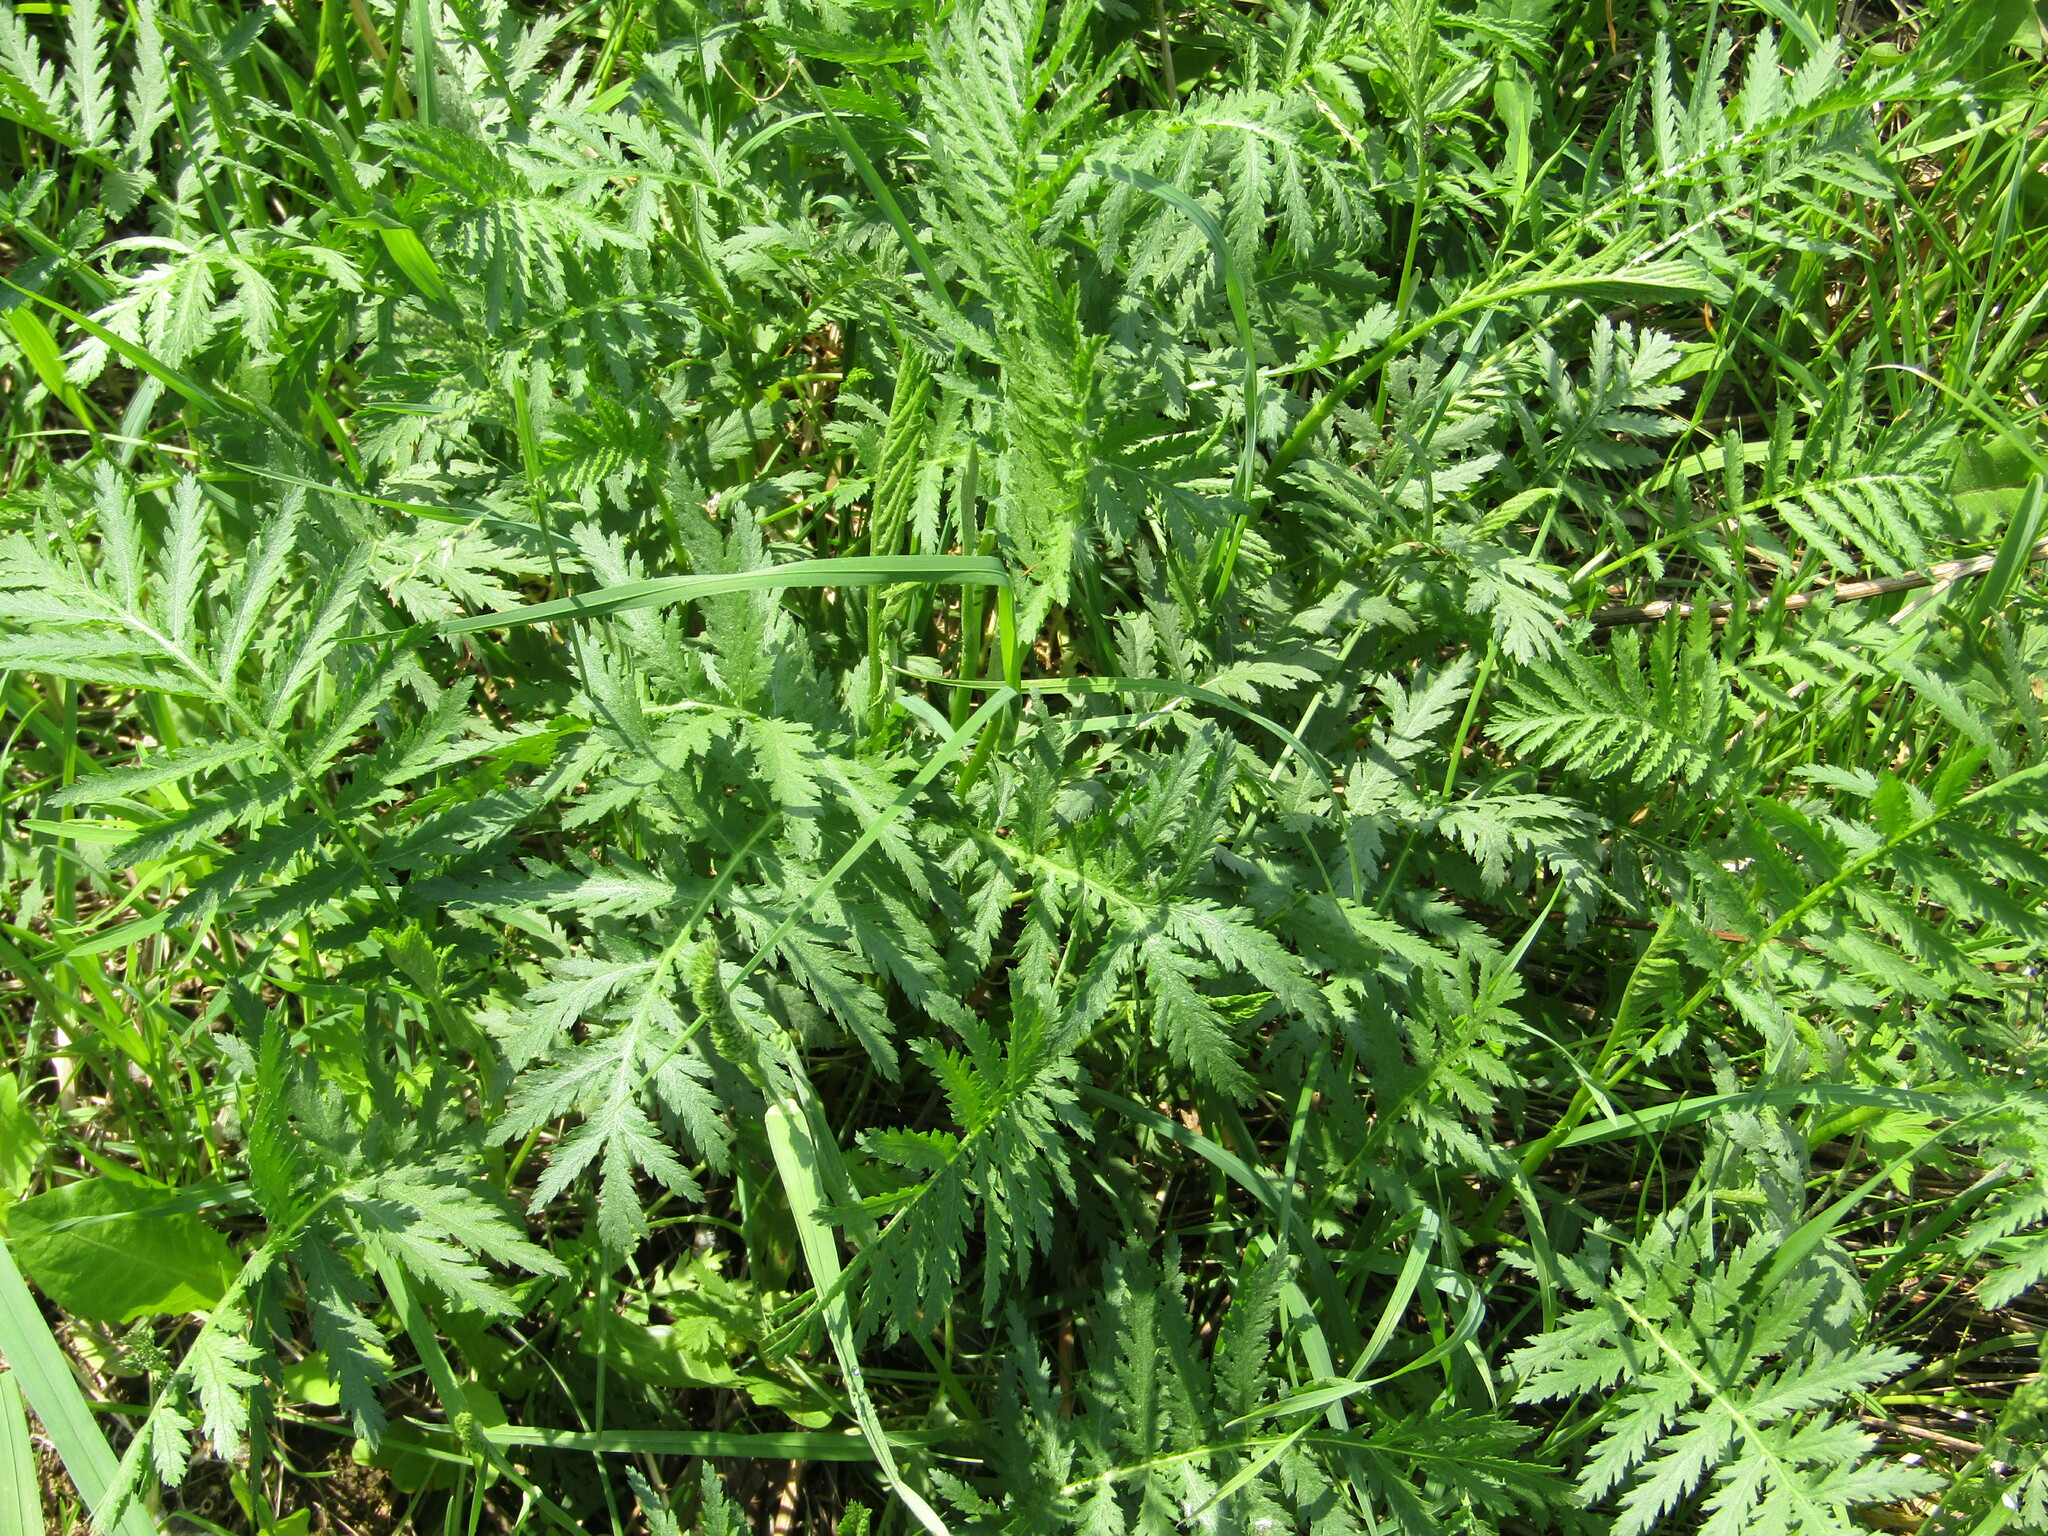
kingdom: Plantae
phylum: Tracheophyta
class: Magnoliopsida
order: Asterales
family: Asteraceae
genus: Tanacetum
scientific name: Tanacetum vulgare
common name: Common tansy
